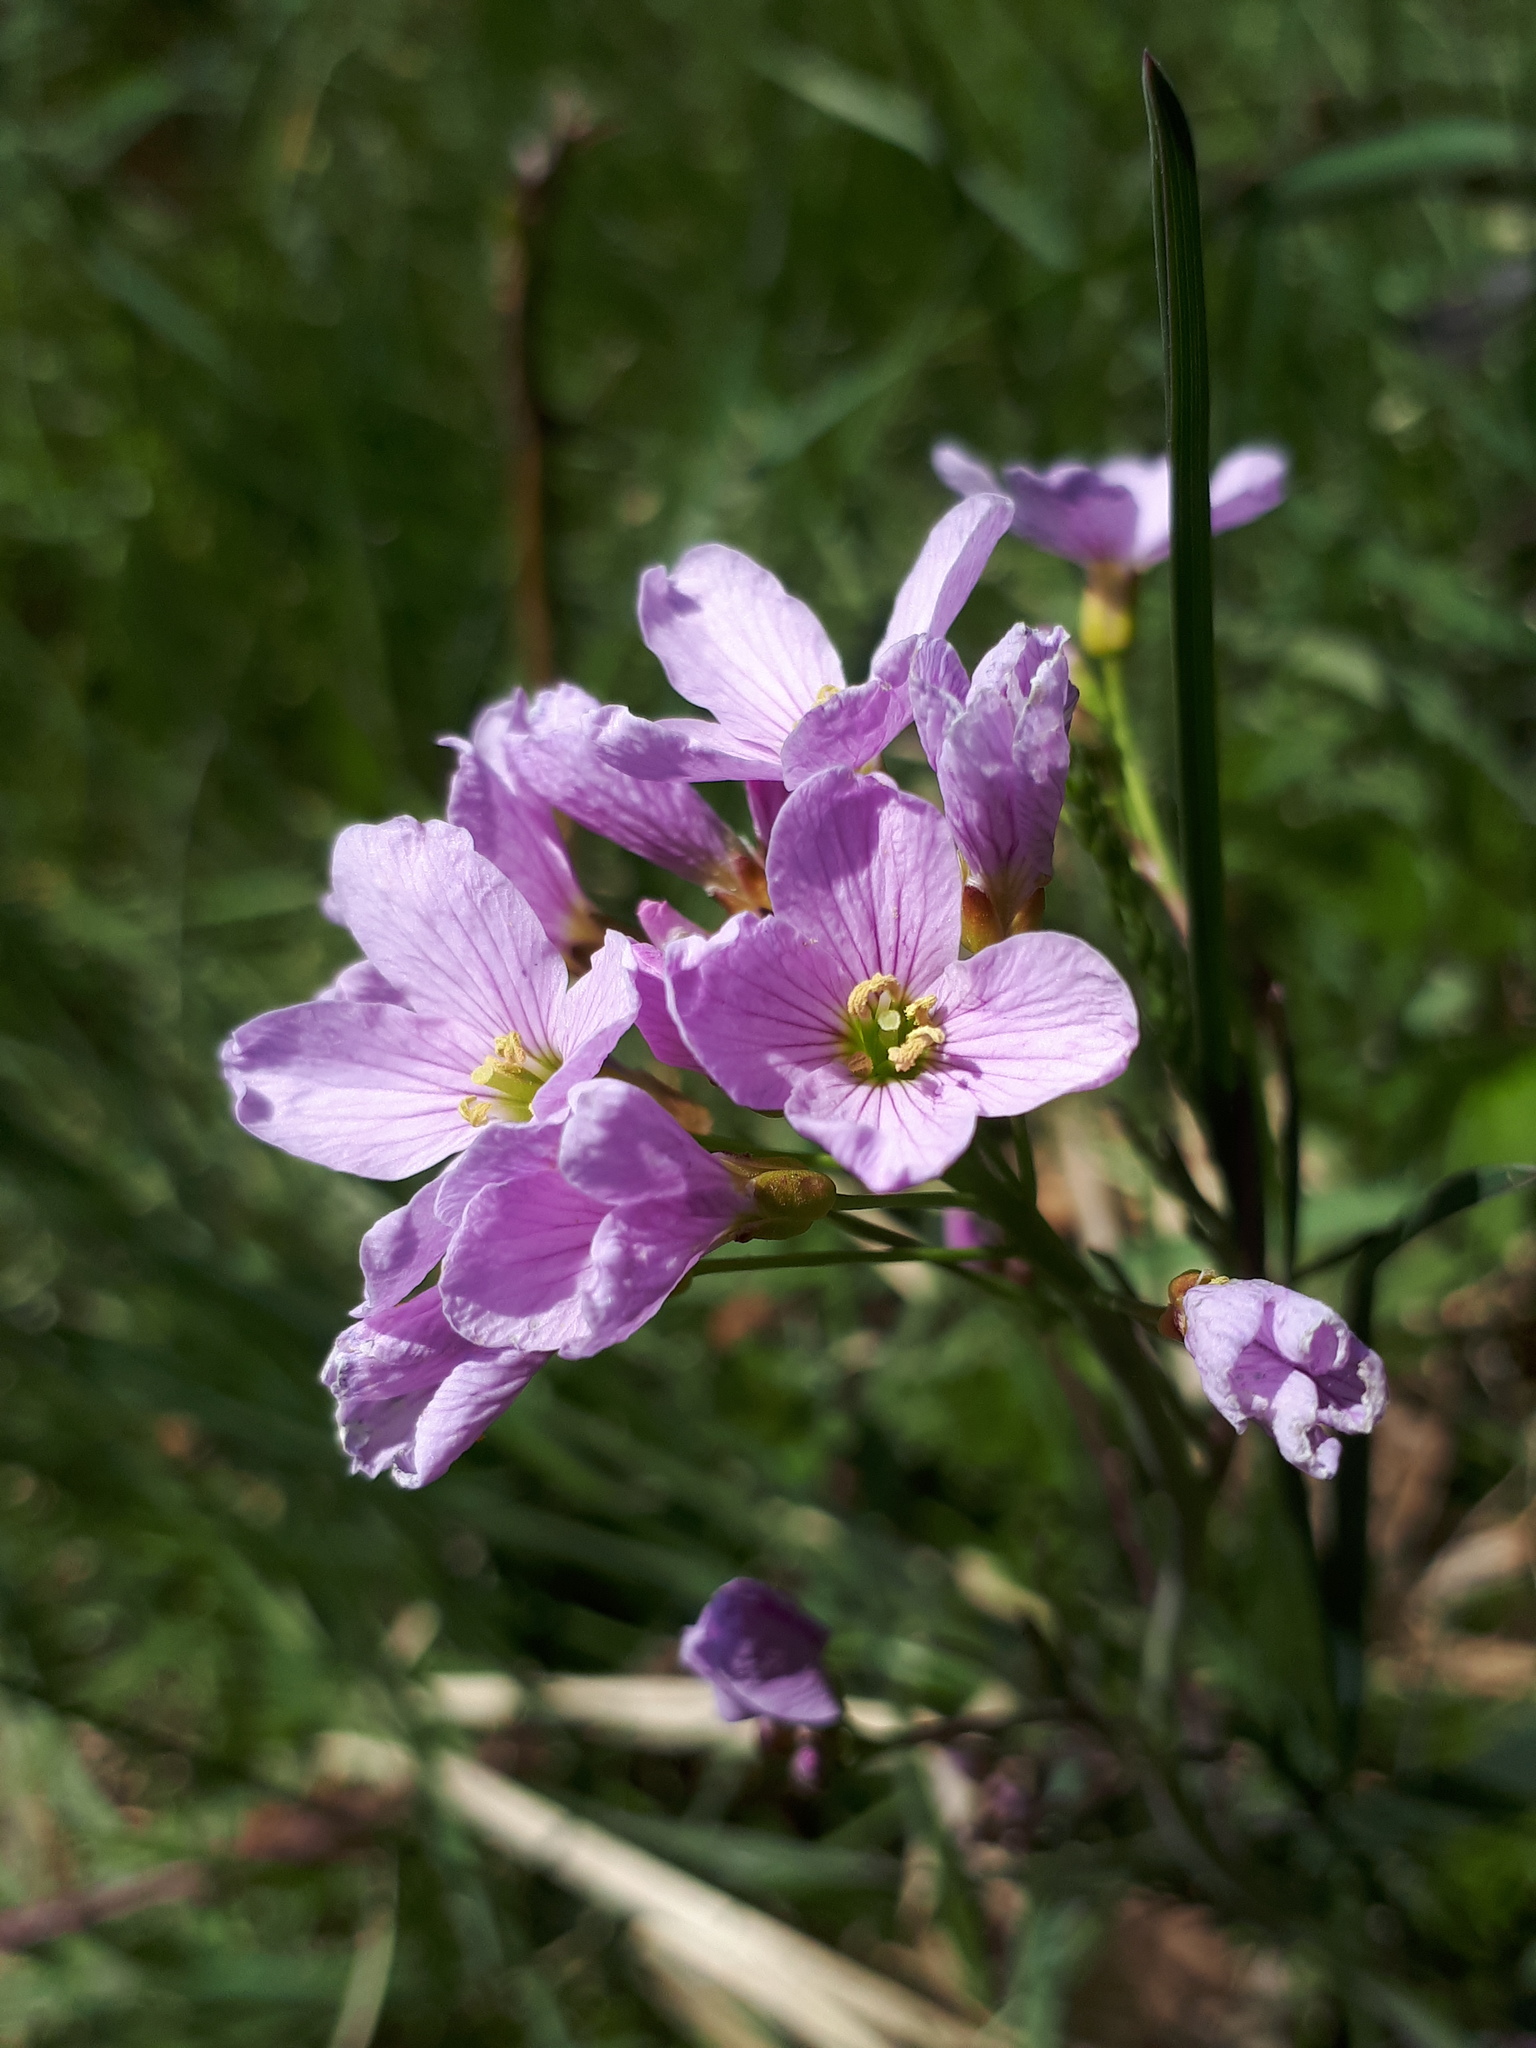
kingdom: Plantae
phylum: Tracheophyta
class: Magnoliopsida
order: Brassicales
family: Brassicaceae
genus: Cardamine
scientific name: Cardamine pratensis
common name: Cuckoo flower
